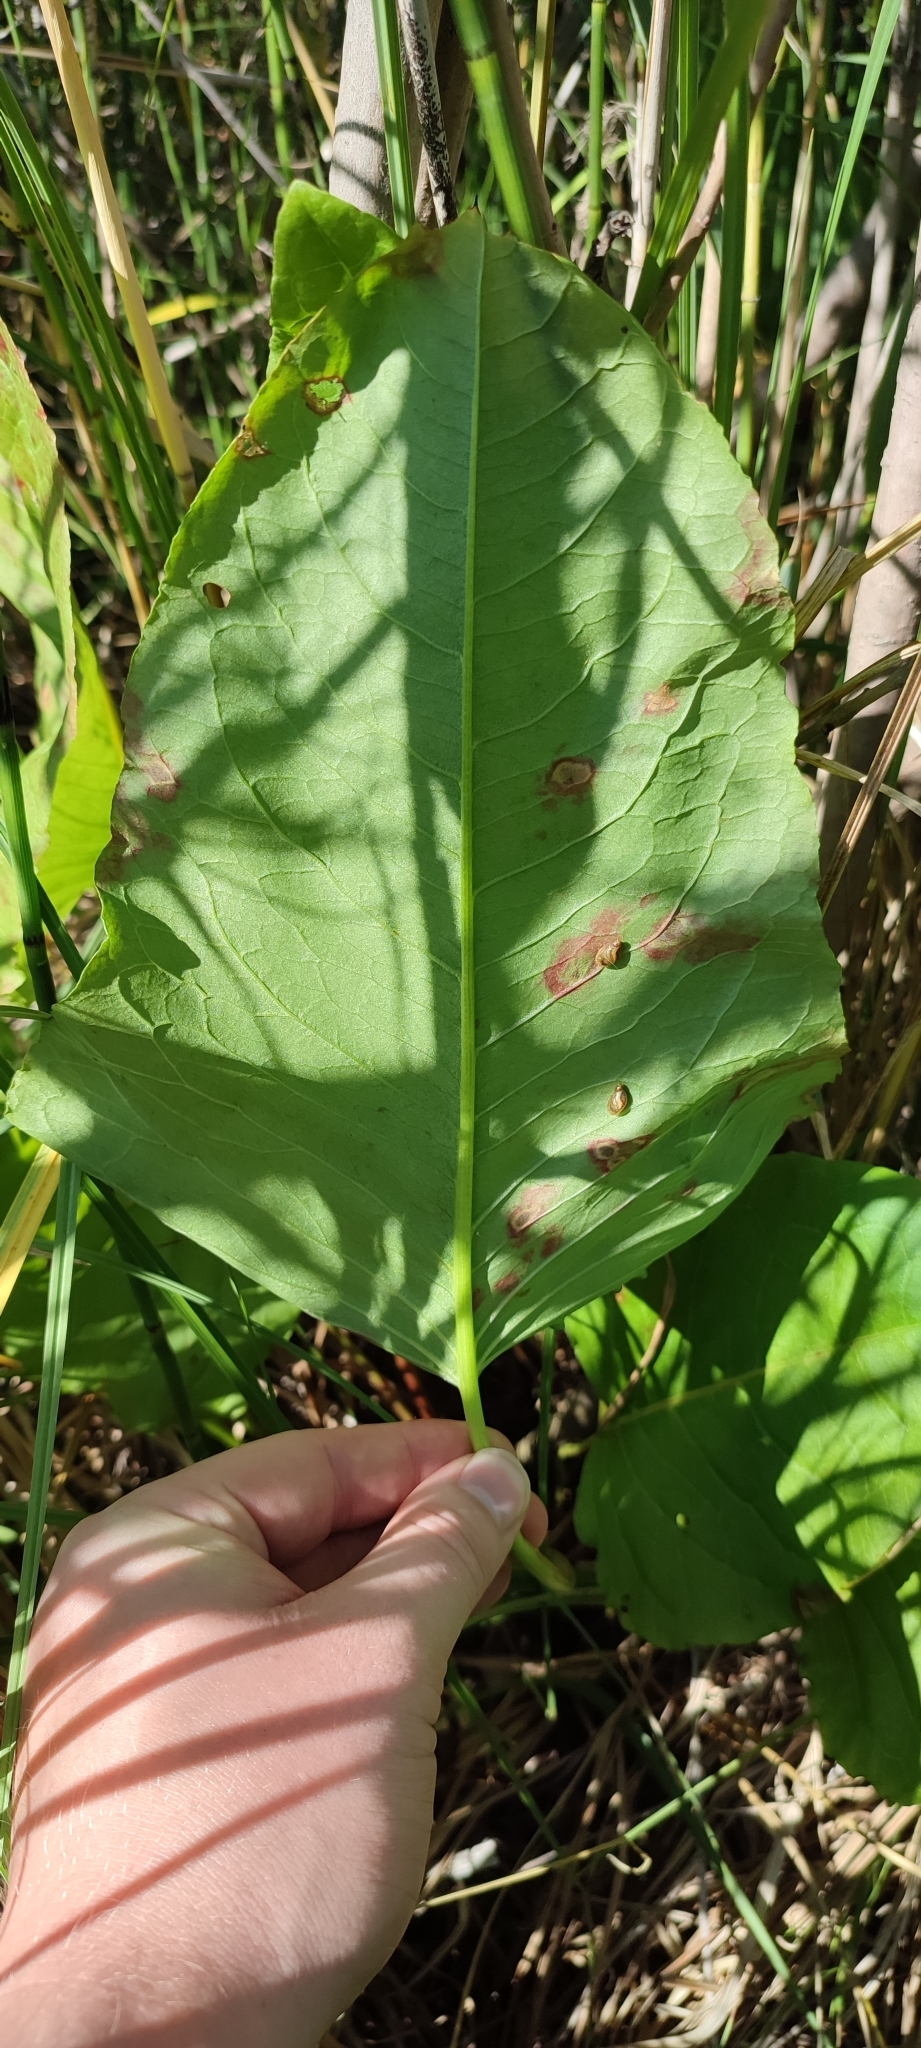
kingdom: Plantae
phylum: Tracheophyta
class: Magnoliopsida
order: Caryophyllales
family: Polygonaceae
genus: Rumex
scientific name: Rumex aquaticus
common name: Scottish dock
